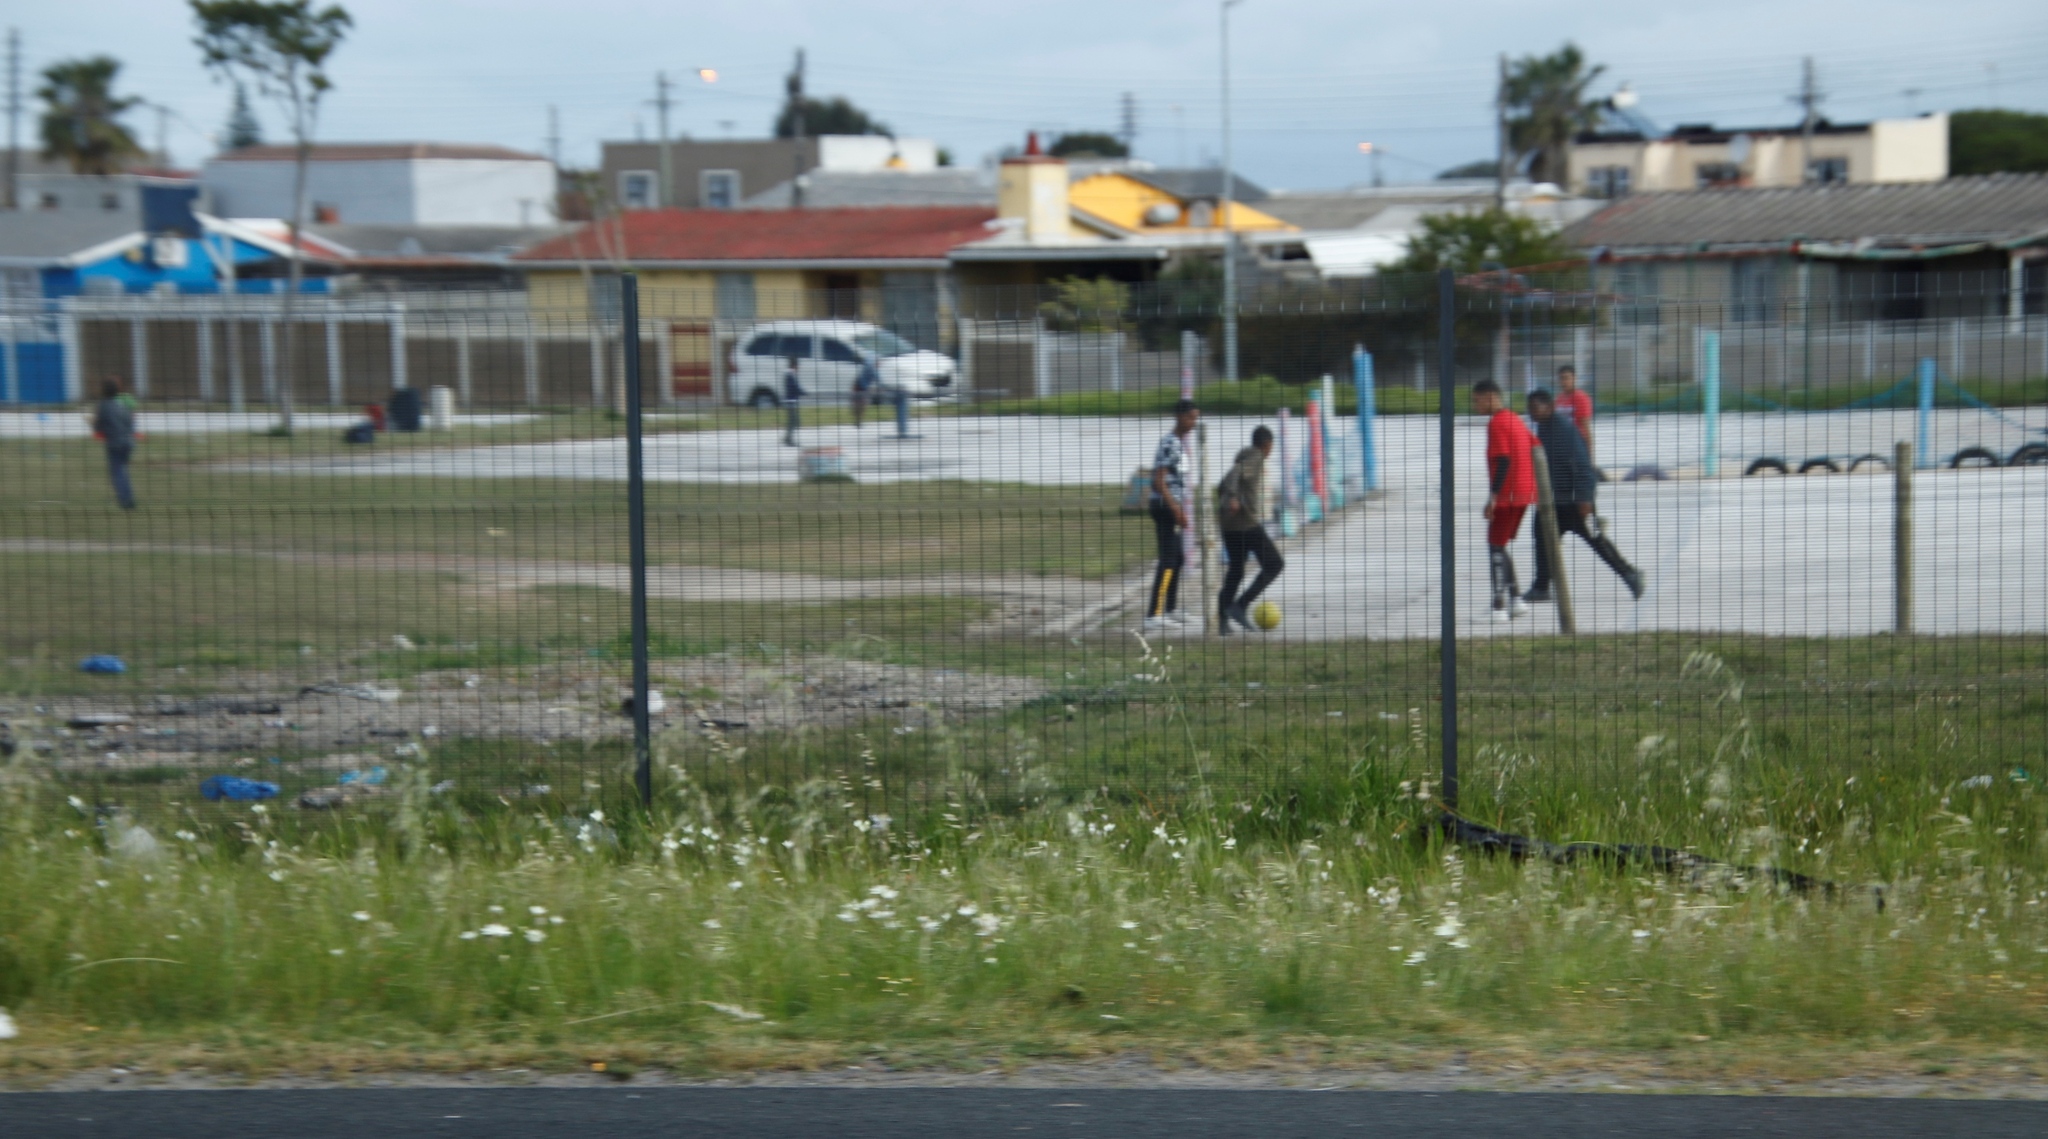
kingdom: Plantae
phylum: Tracheophyta
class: Liliopsida
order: Asparagales
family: Iridaceae
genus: Sparaxis
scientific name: Sparaxis bulbifera
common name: Harlequin-flower
